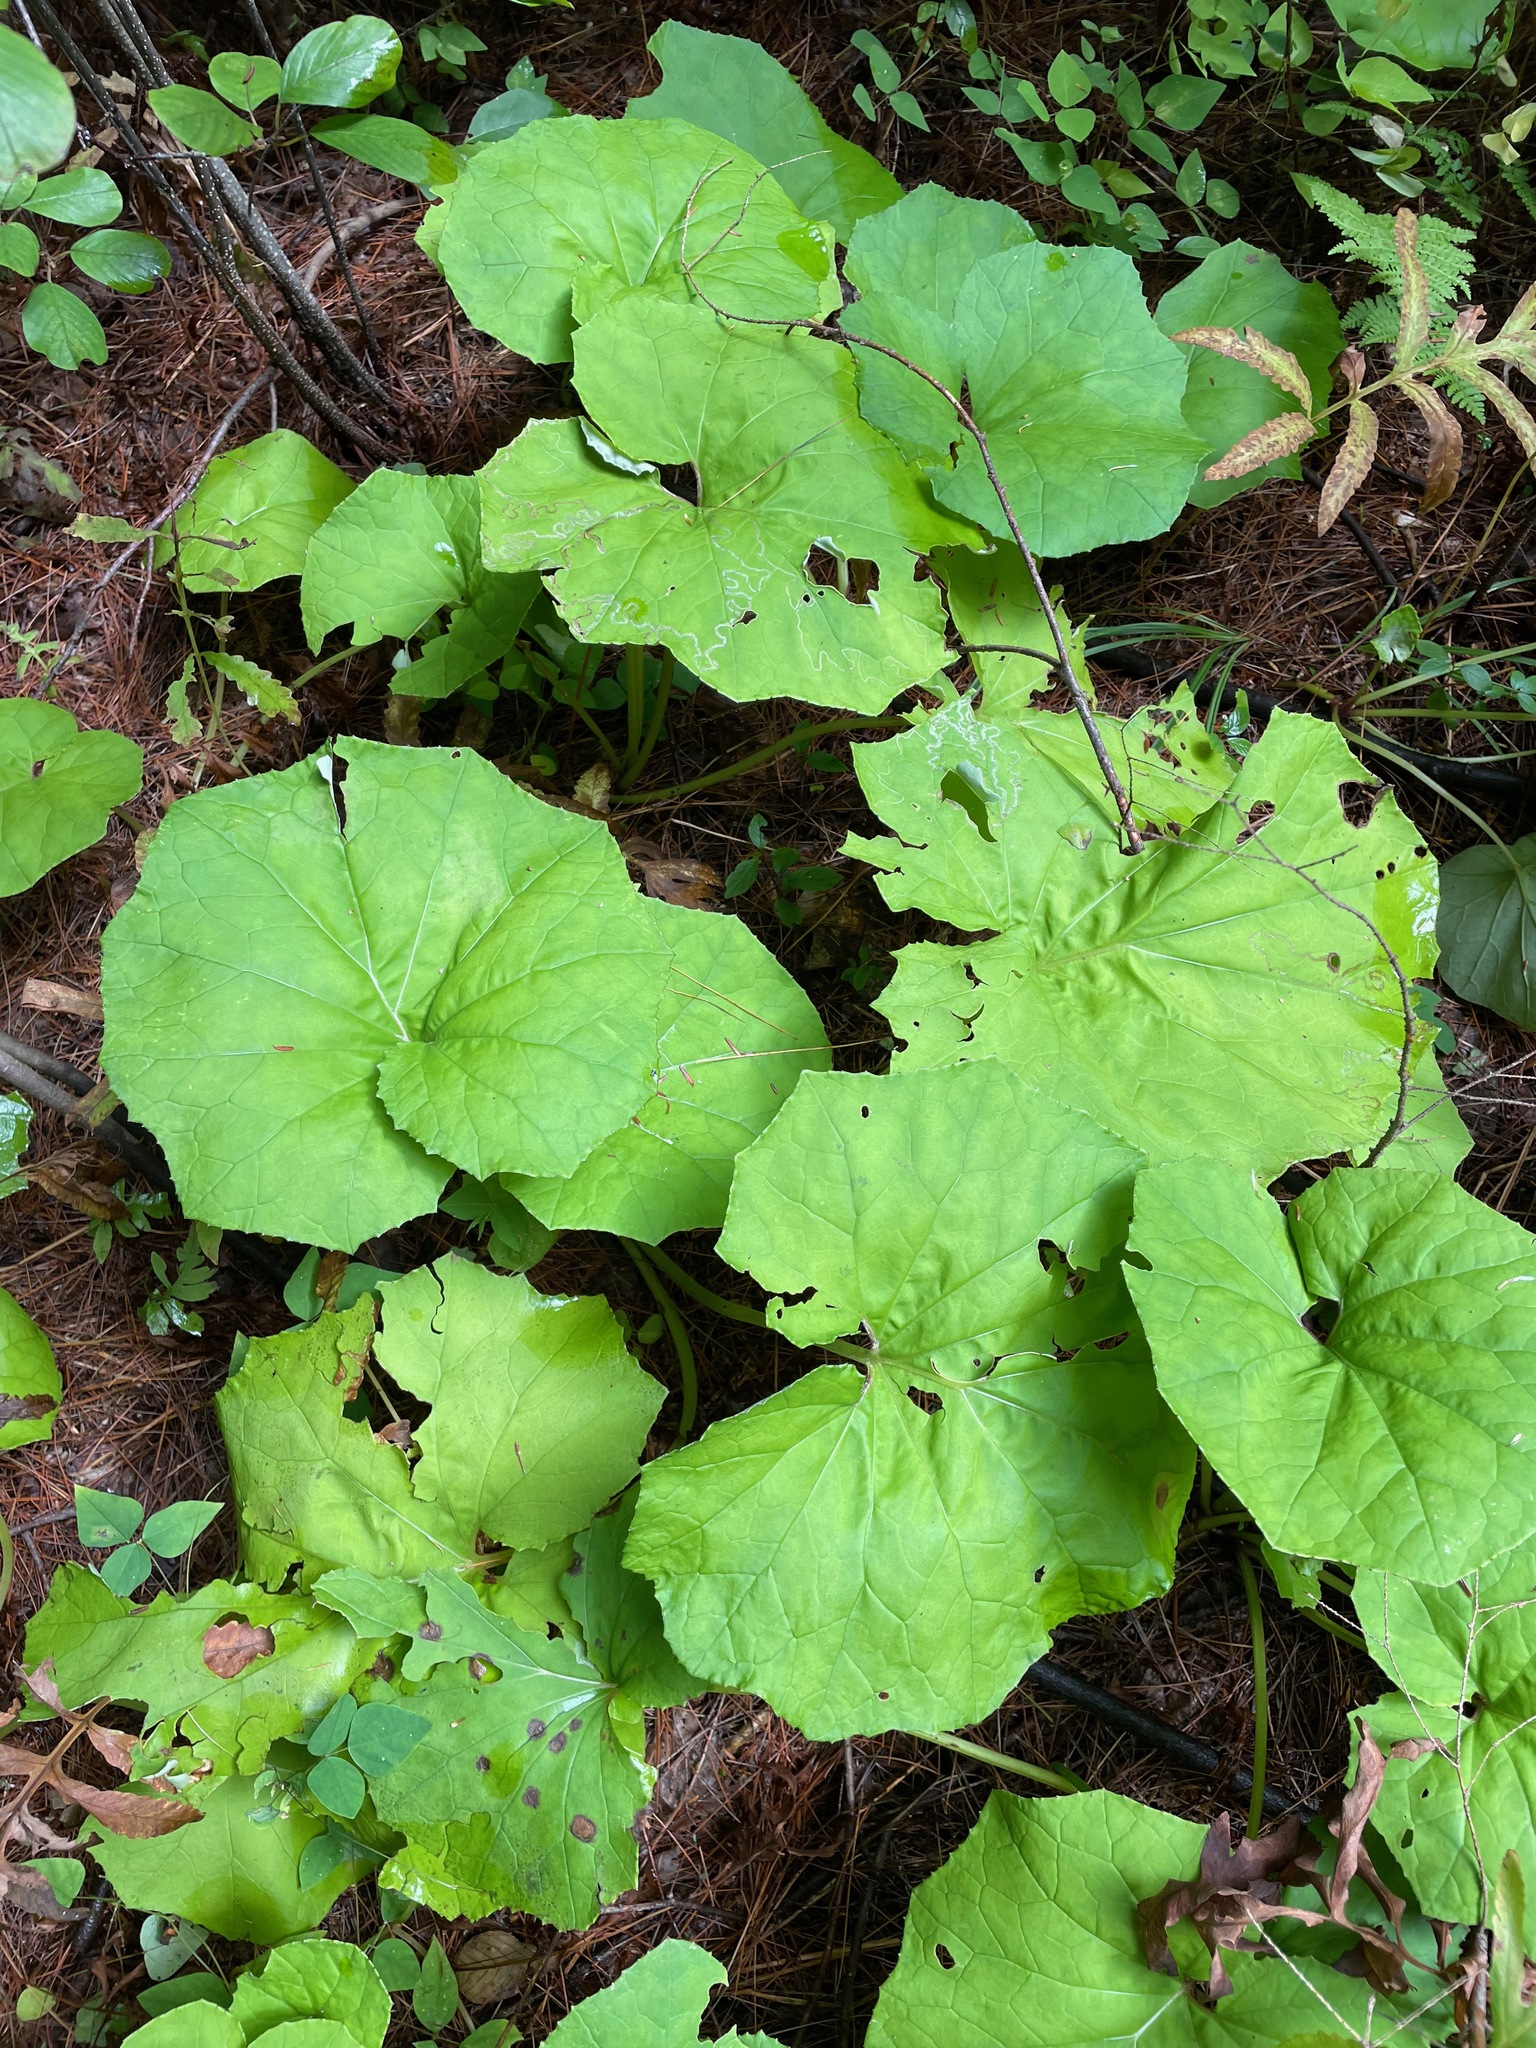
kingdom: Plantae
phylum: Tracheophyta
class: Magnoliopsida
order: Asterales
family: Asteraceae
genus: Tussilago
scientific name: Tussilago farfara
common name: Coltsfoot
